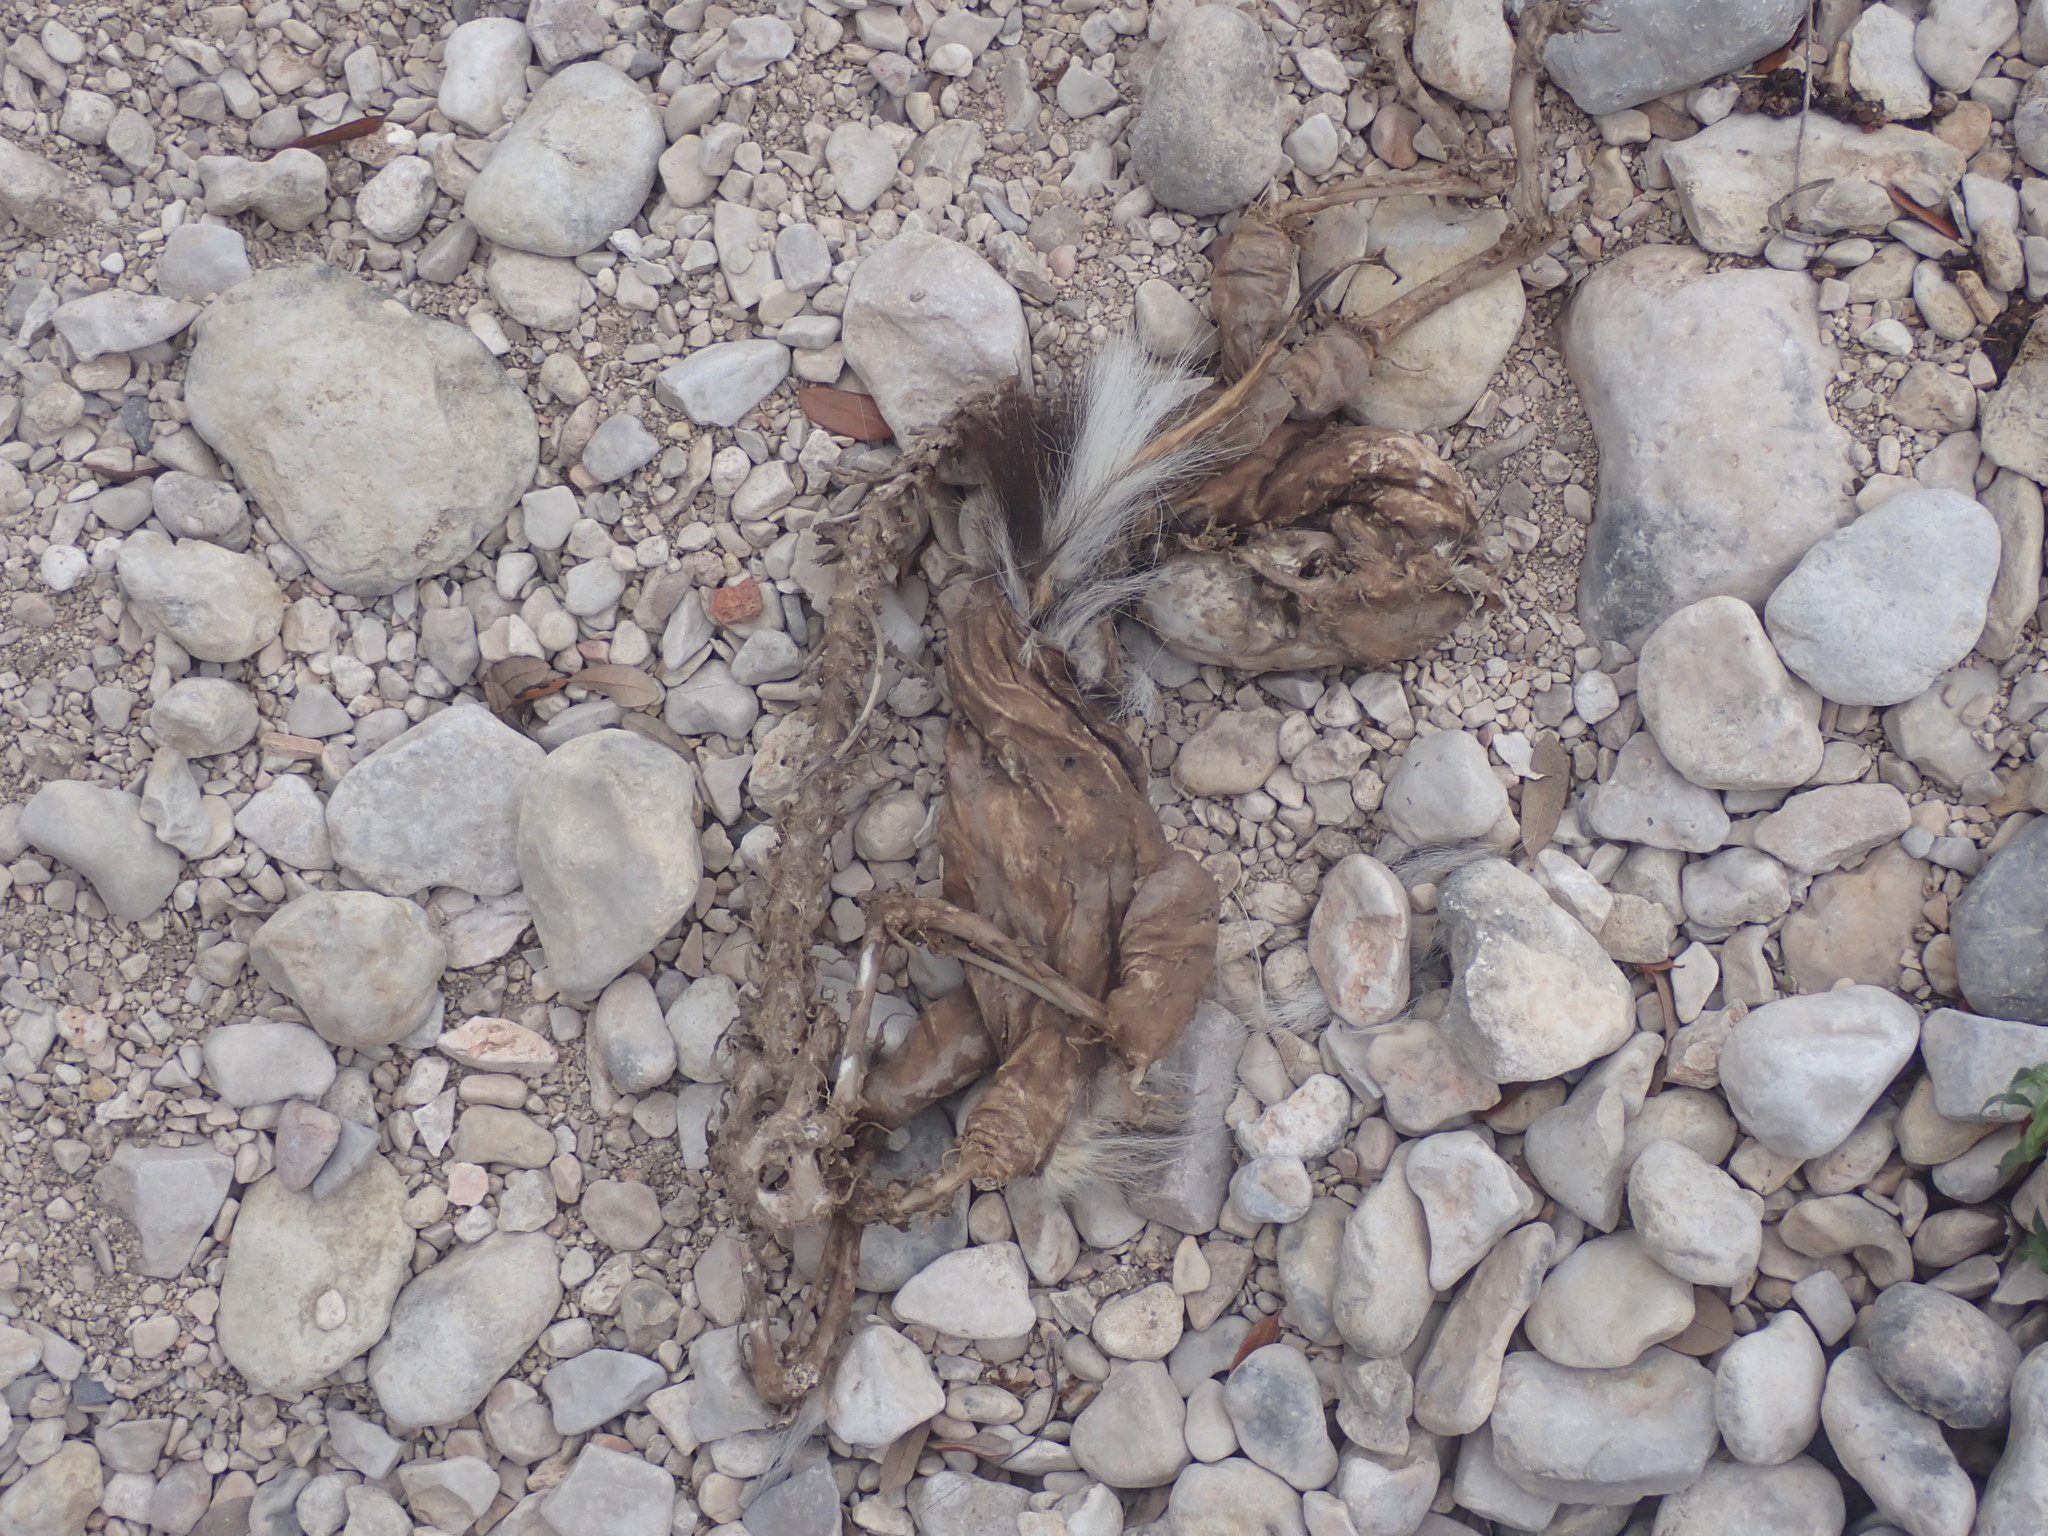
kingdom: Animalia
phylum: Chordata
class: Mammalia
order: Carnivora
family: Mephitidae
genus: Mephitis
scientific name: Mephitis mephitis
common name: Striped skunk
